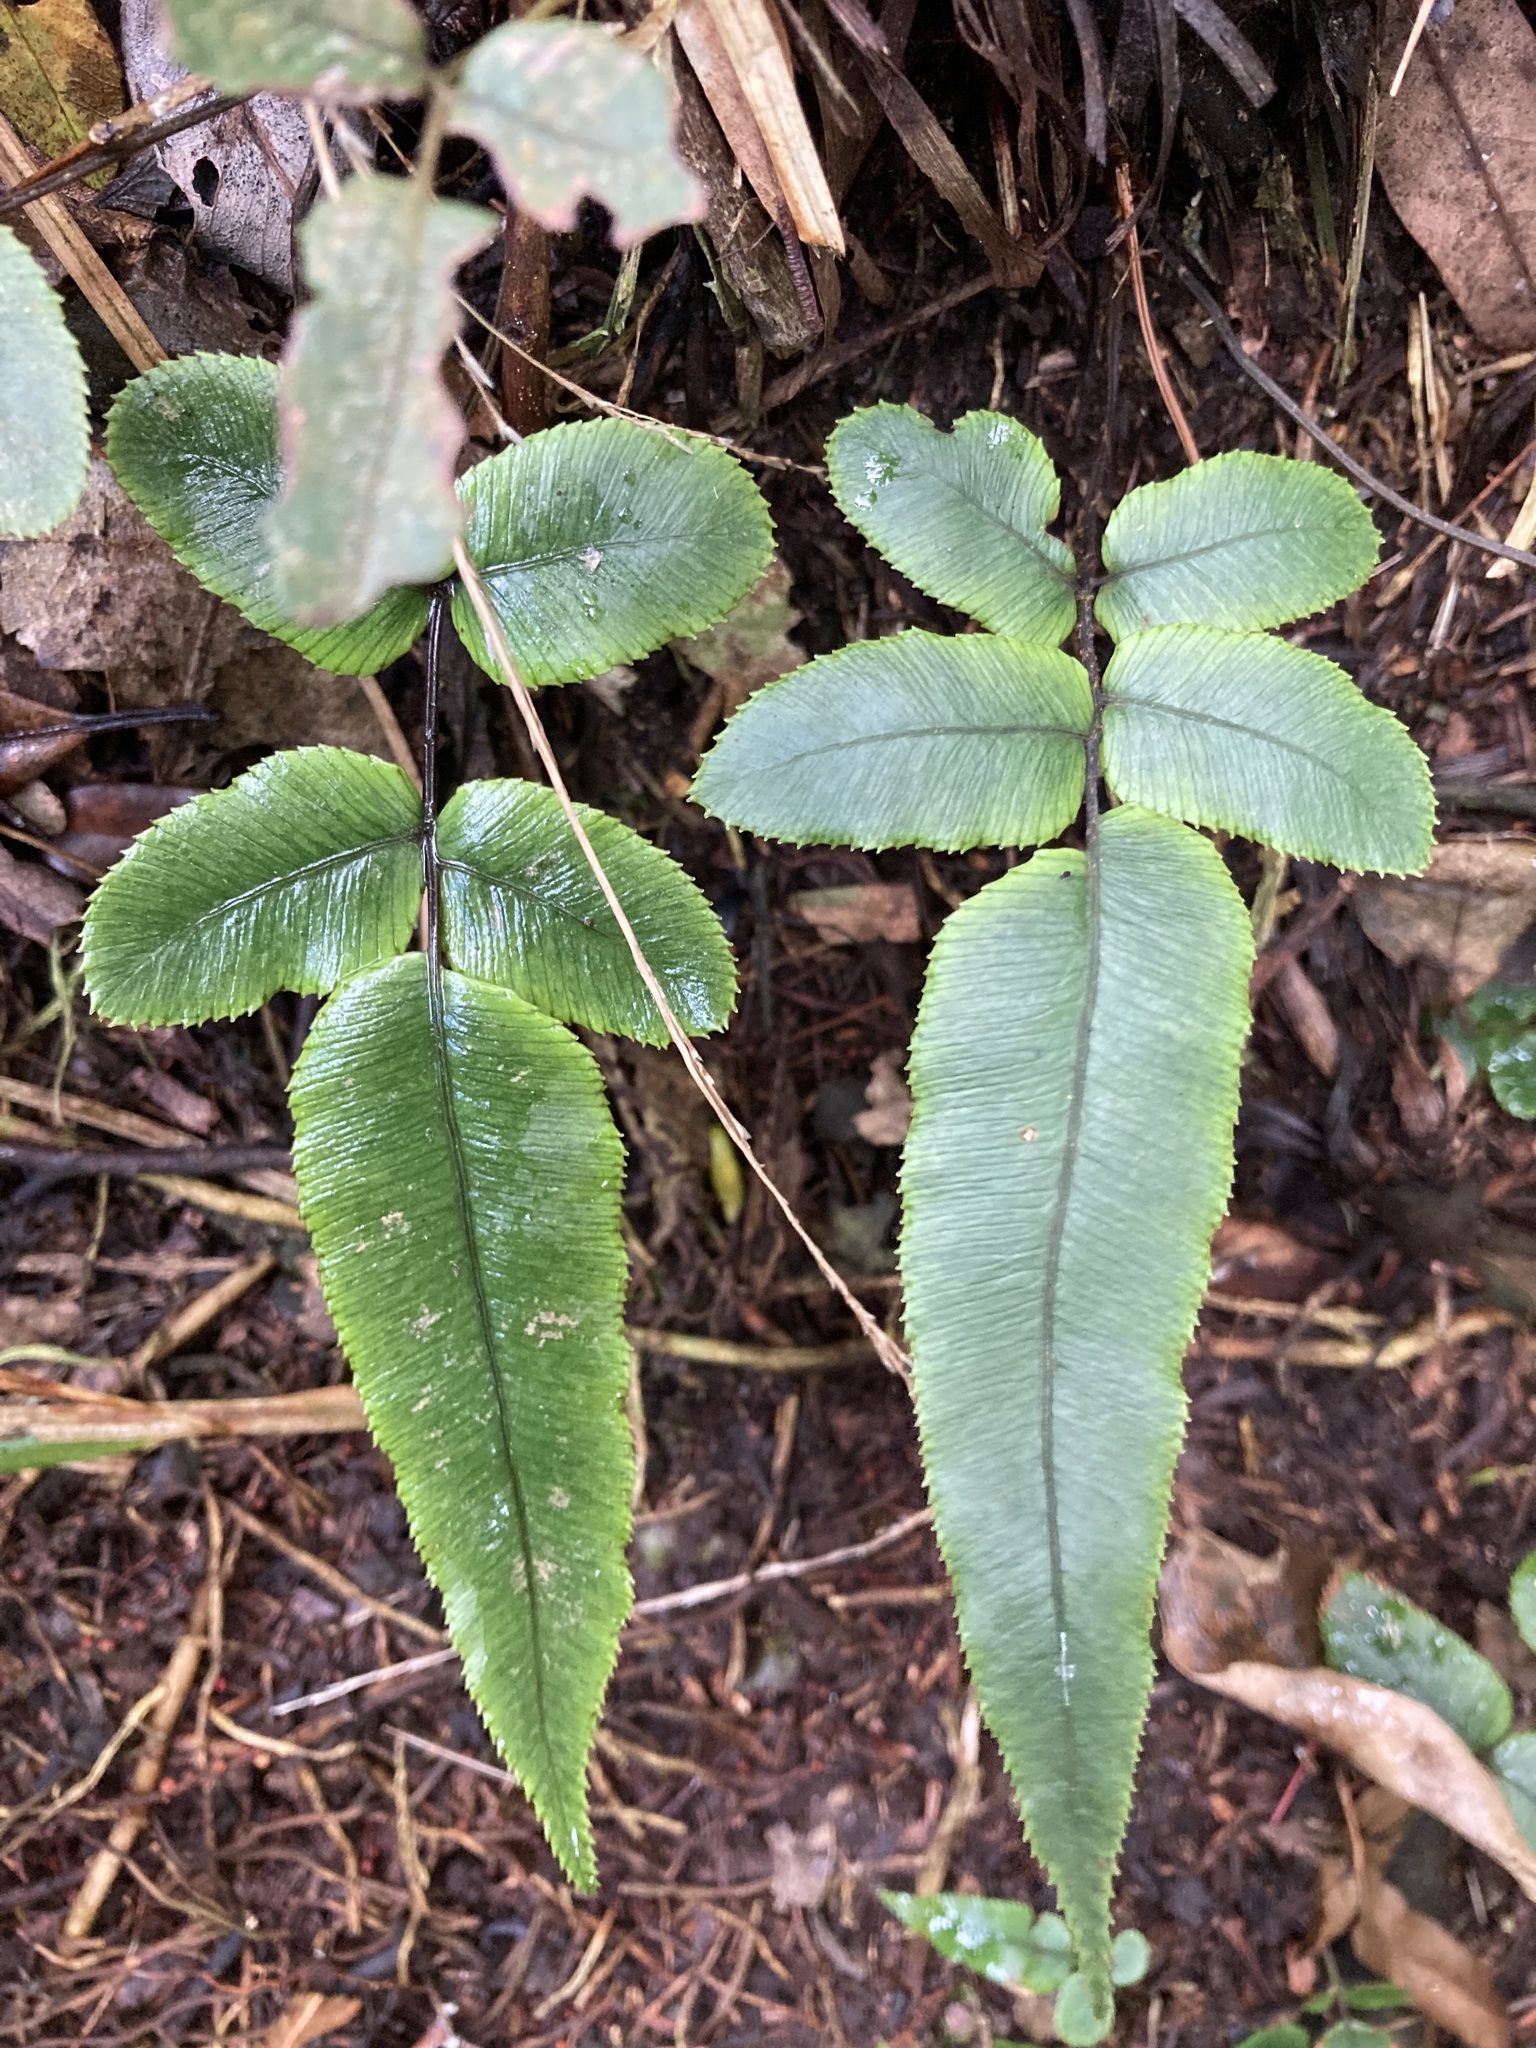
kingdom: Plantae
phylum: Tracheophyta
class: Polypodiopsida
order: Polypodiales
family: Blechnaceae
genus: Parablechnum
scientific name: Parablechnum procerum
